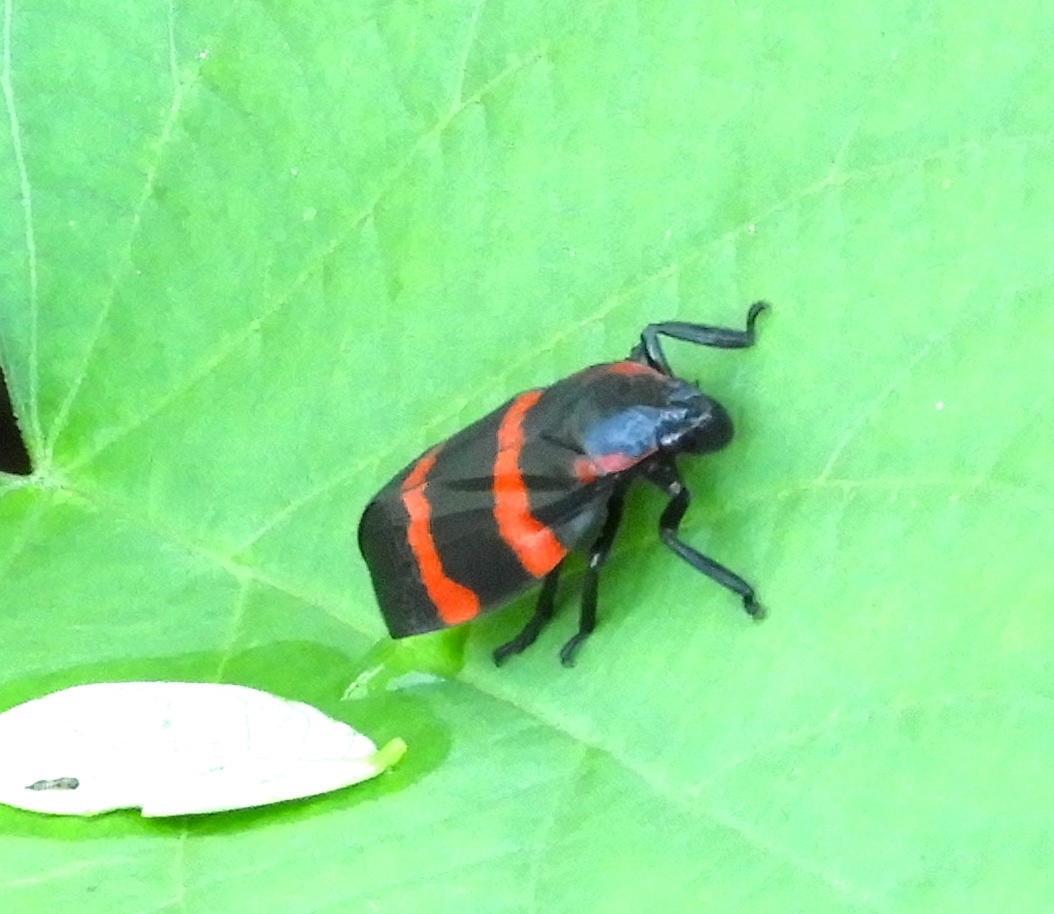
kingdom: Animalia
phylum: Arthropoda
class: Insecta
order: Hemiptera
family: Cercopidae
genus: Huaina
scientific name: Huaina inca
